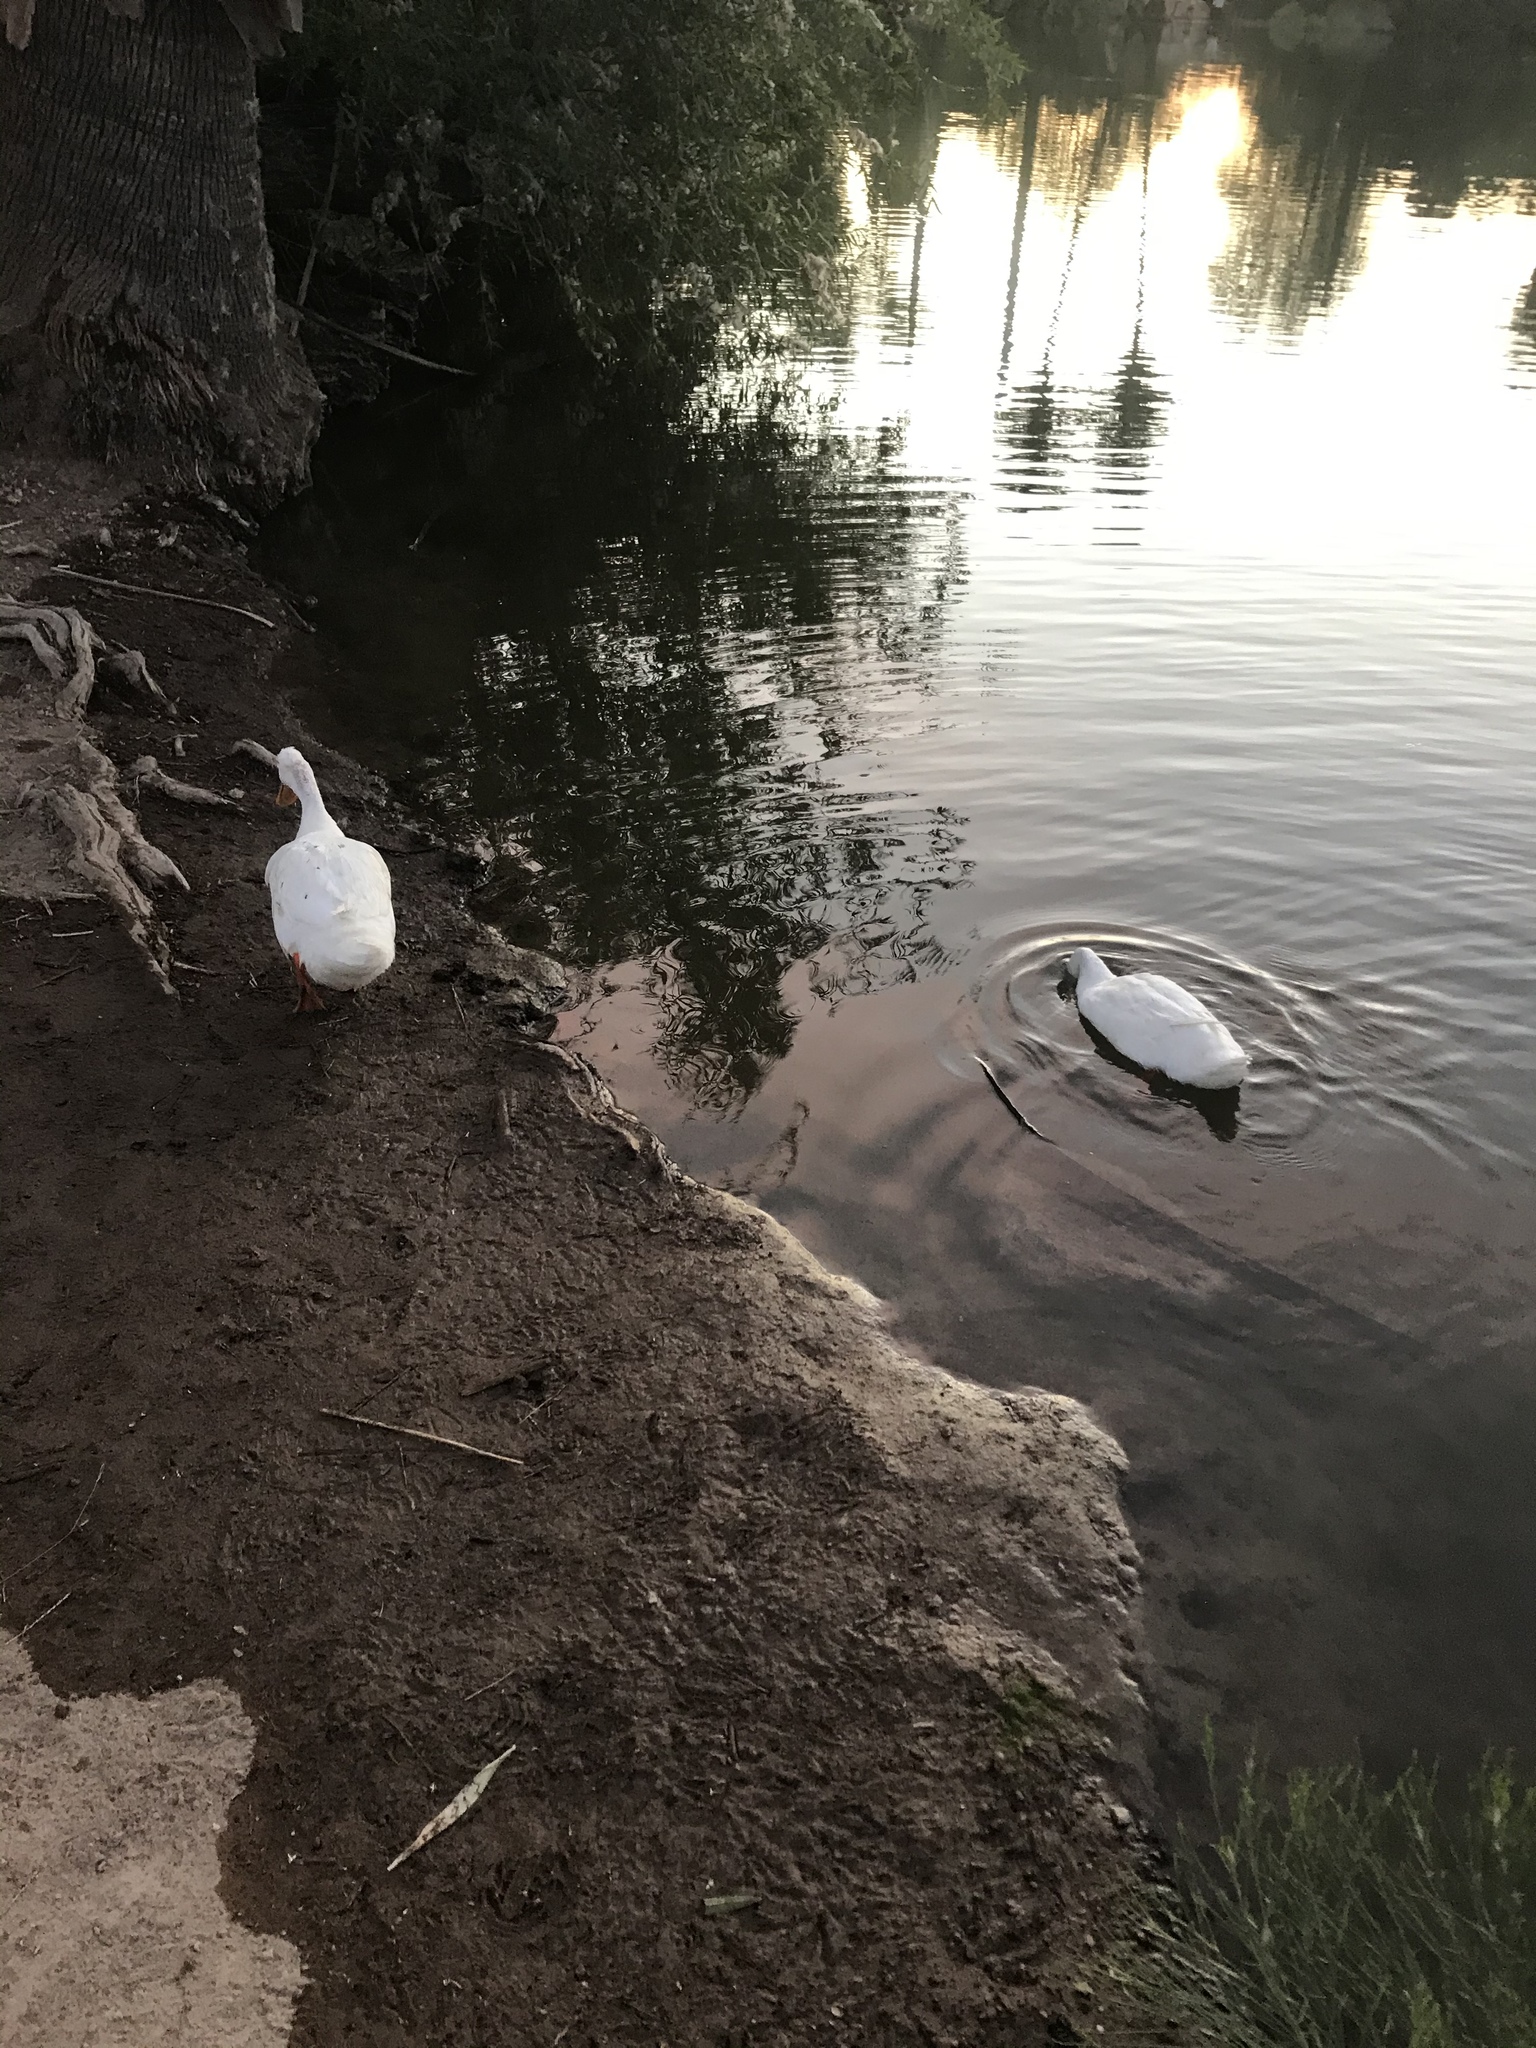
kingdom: Animalia
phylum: Chordata
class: Aves
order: Anseriformes
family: Anatidae
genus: Anas
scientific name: Anas platyrhynchos
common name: Mallard
